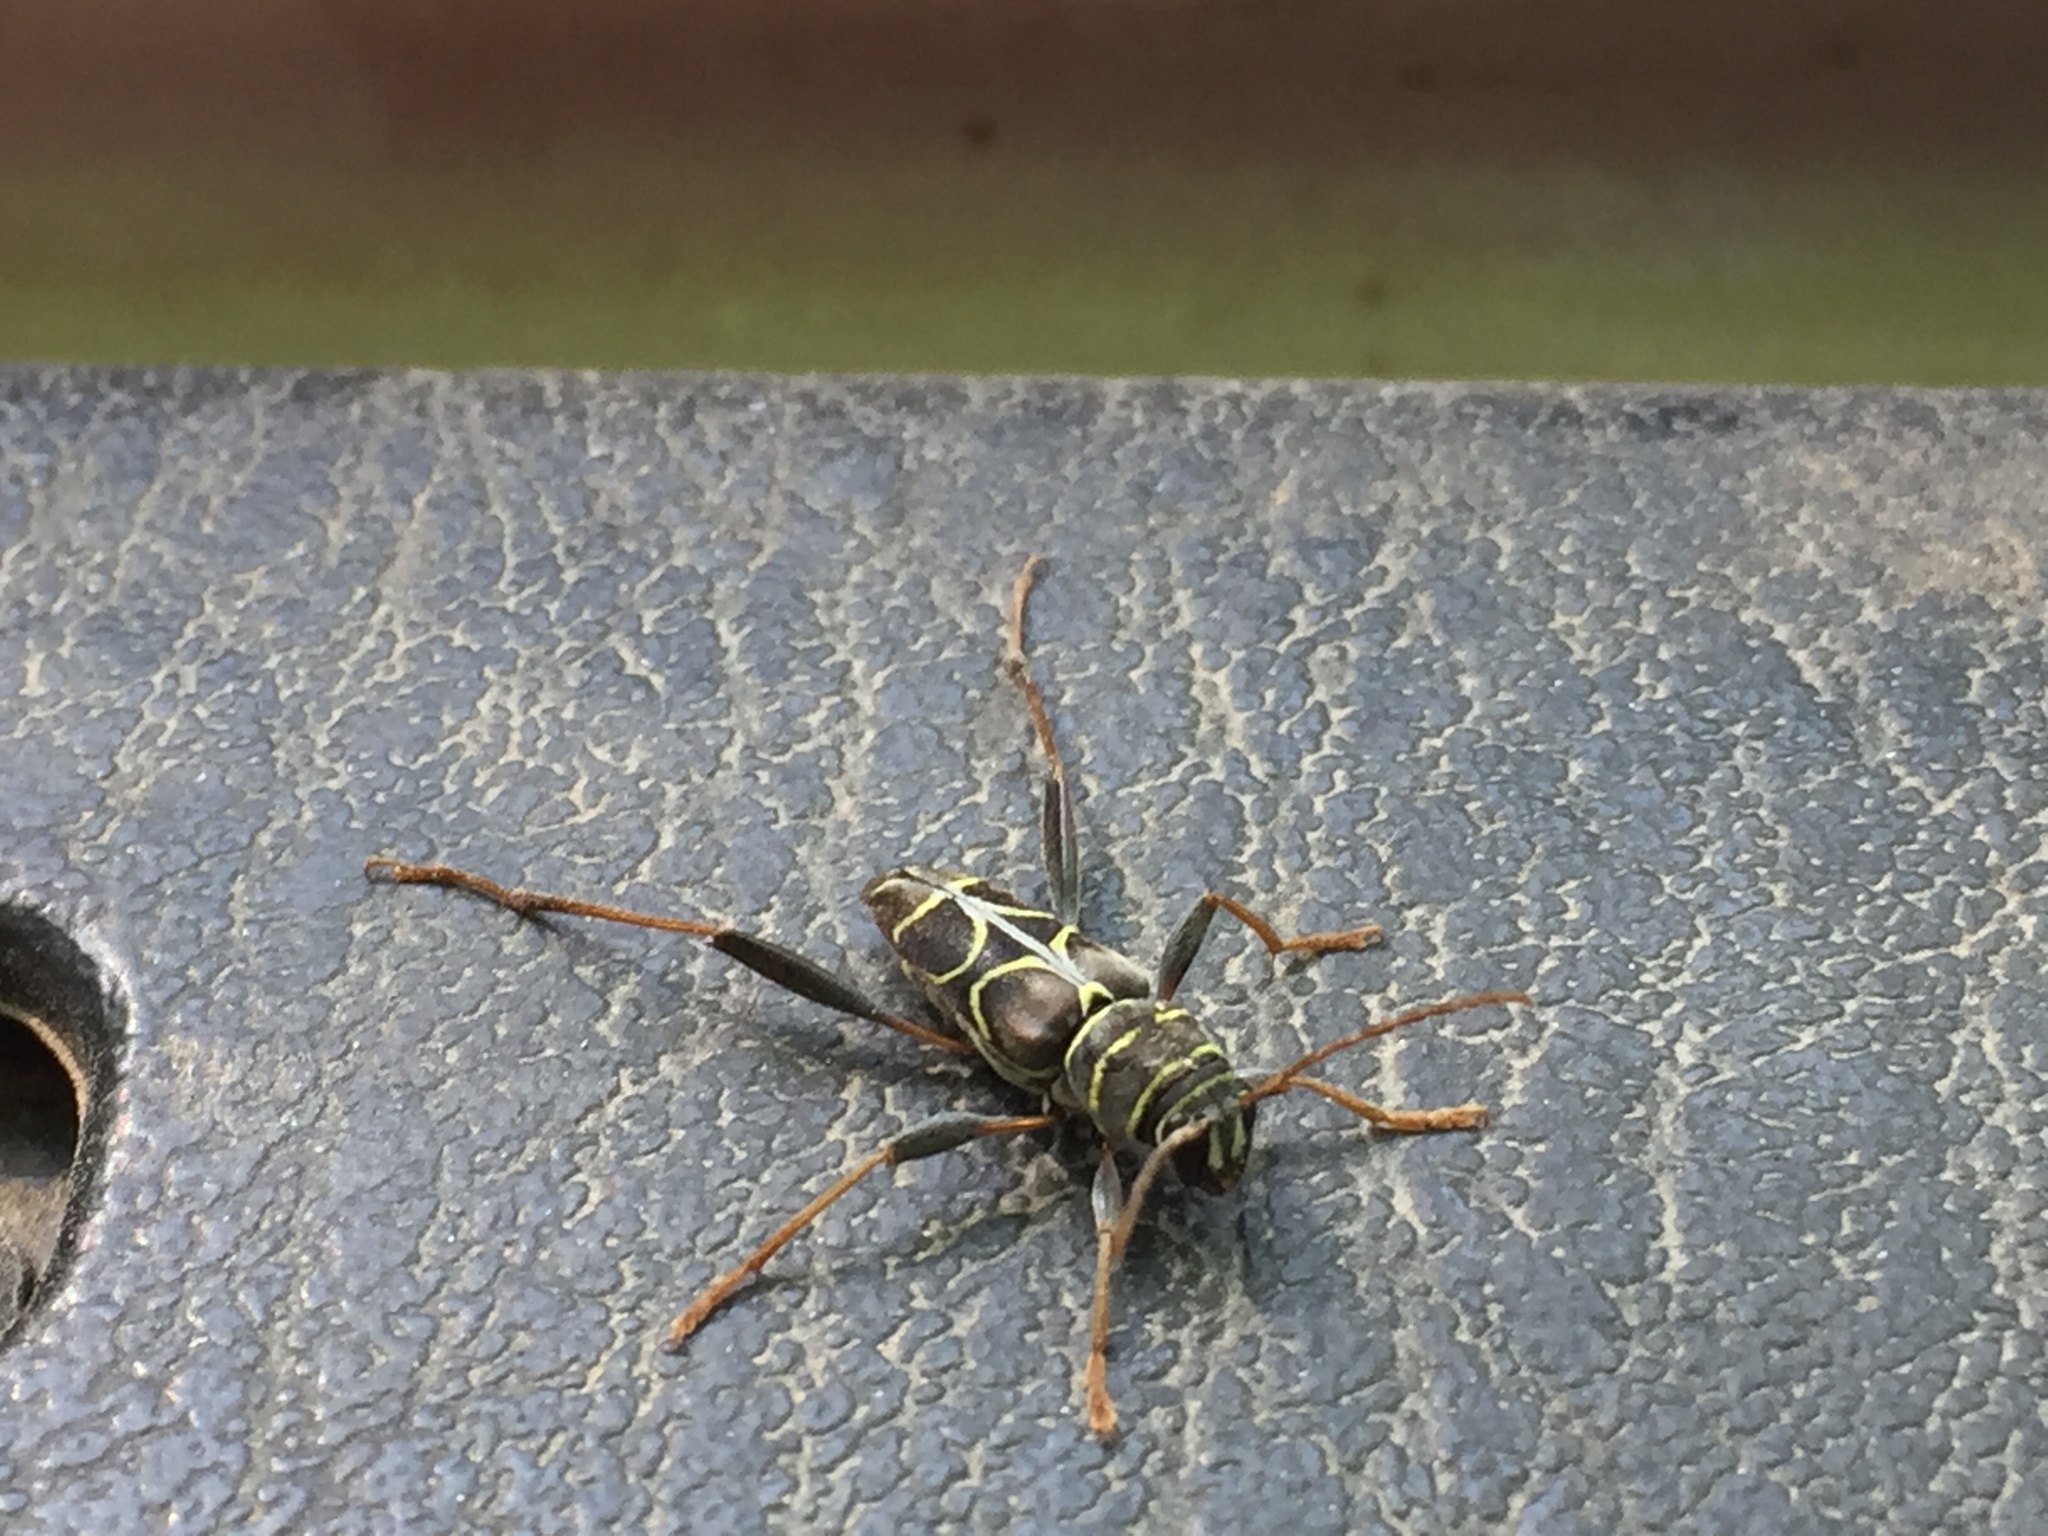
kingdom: Animalia
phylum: Arthropoda
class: Insecta
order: Coleoptera
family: Cerambycidae
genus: Neoclytus
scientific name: Neoclytus scutellaris
